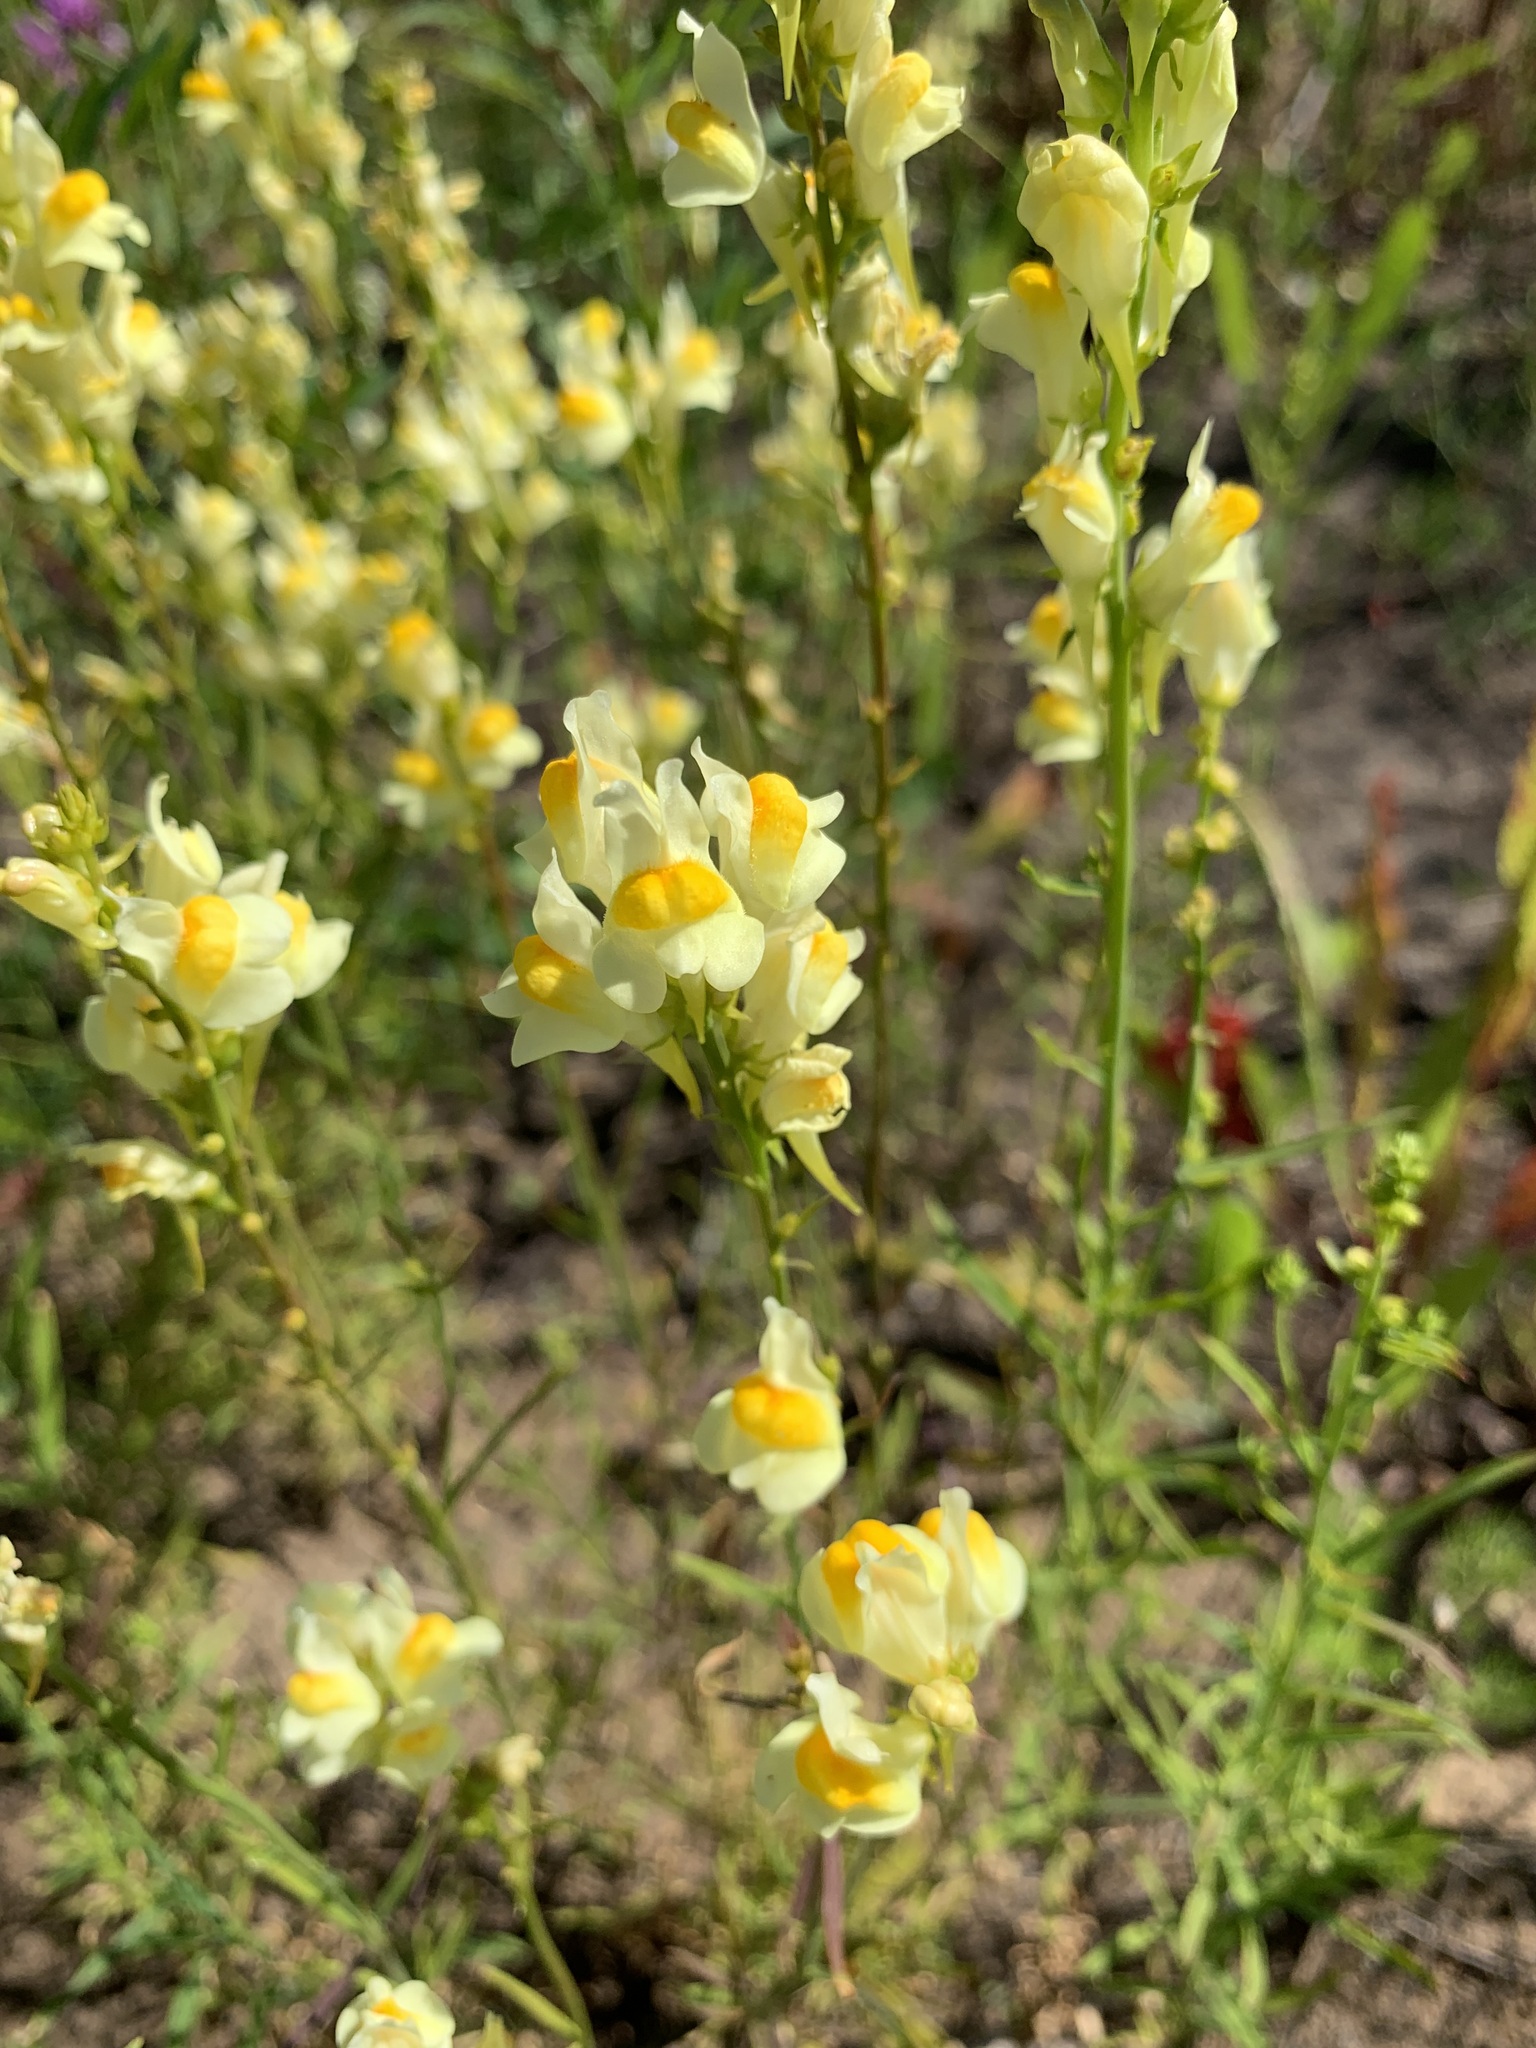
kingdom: Plantae
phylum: Tracheophyta
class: Magnoliopsida
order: Lamiales
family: Plantaginaceae
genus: Linaria
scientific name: Linaria vulgaris
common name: Butter and eggs
